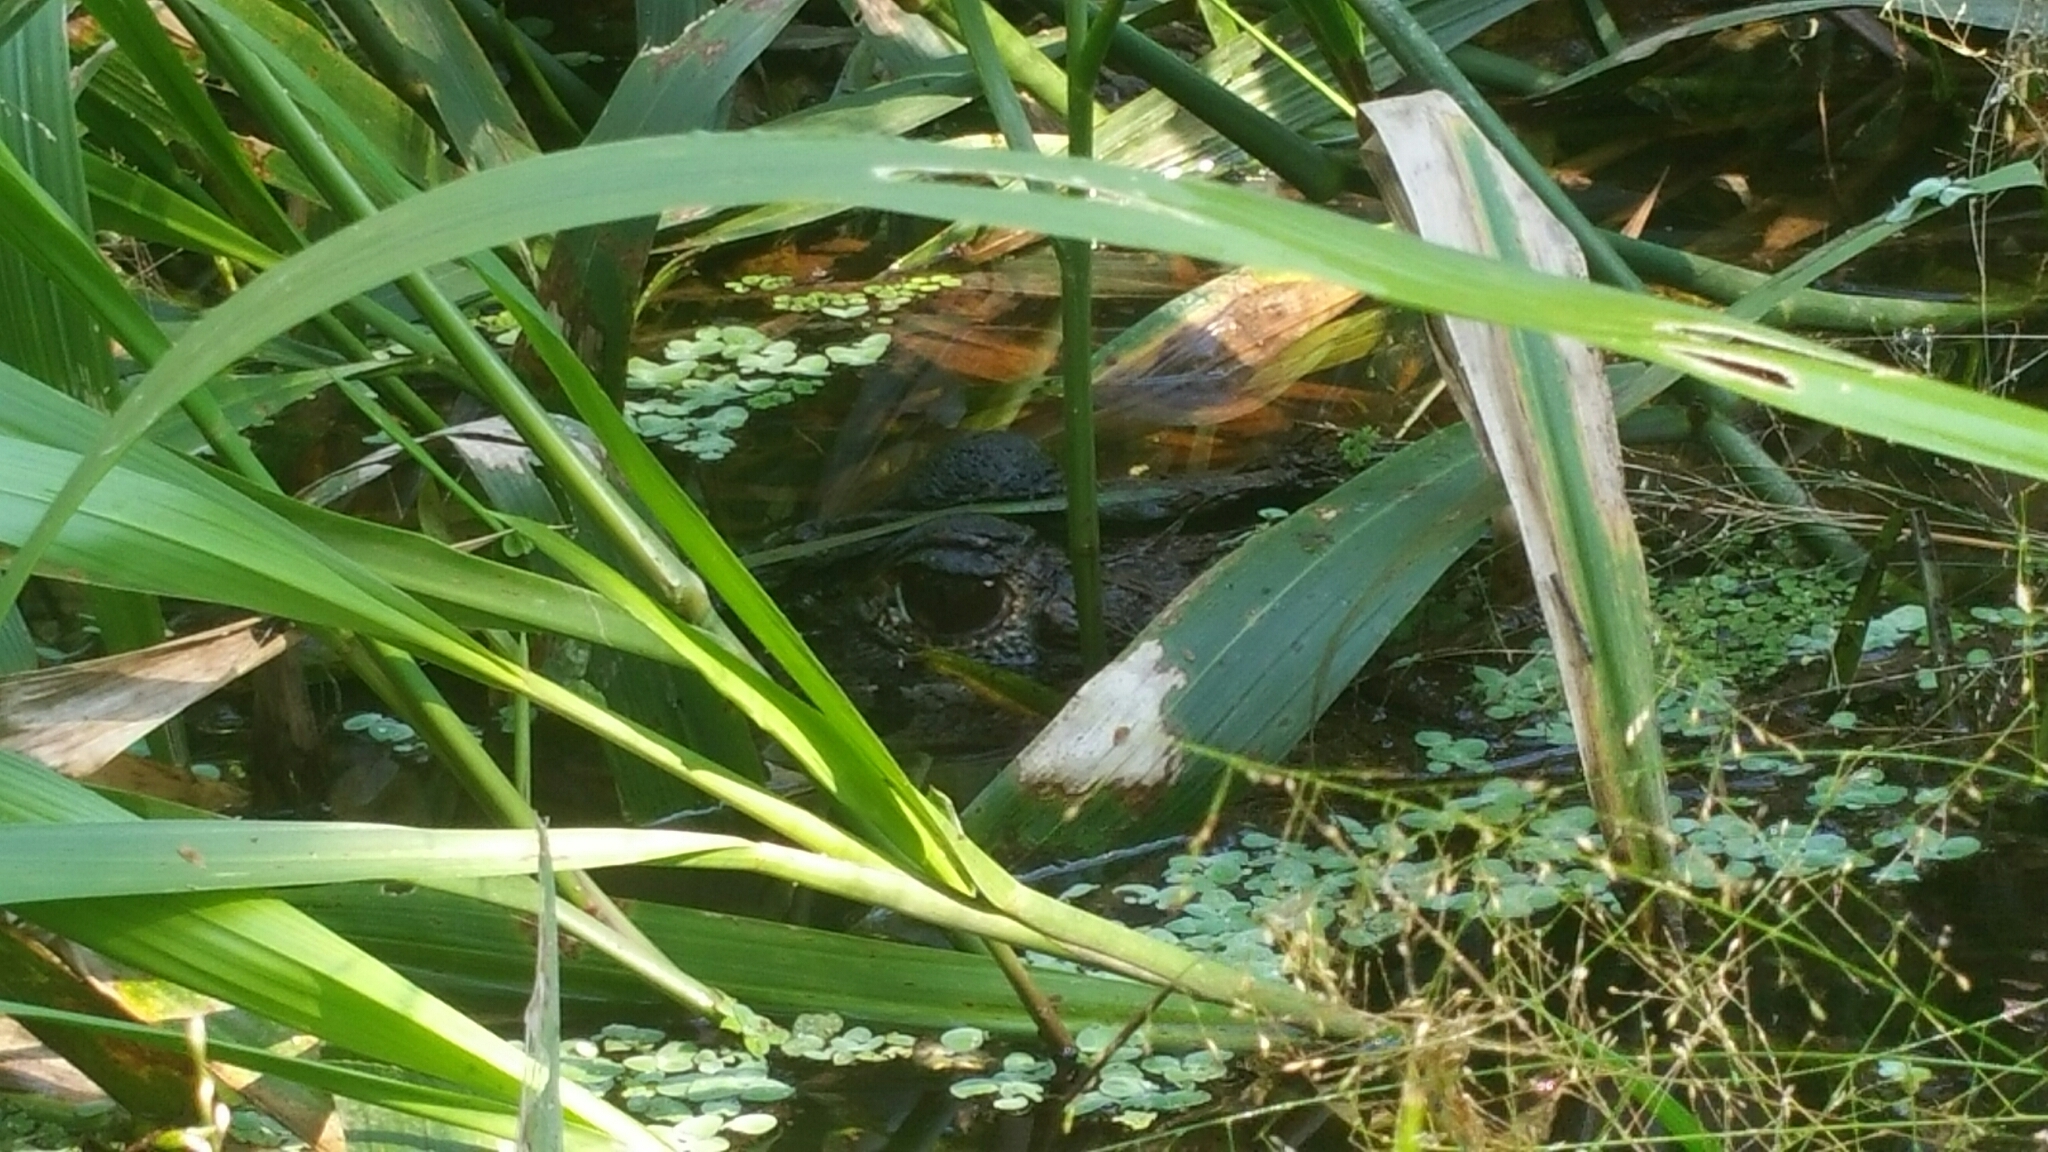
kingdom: Animalia
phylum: Chordata
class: Crocodylia
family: Alligatoridae
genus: Melanosuchus
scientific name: Melanosuchus niger
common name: Black caiman
